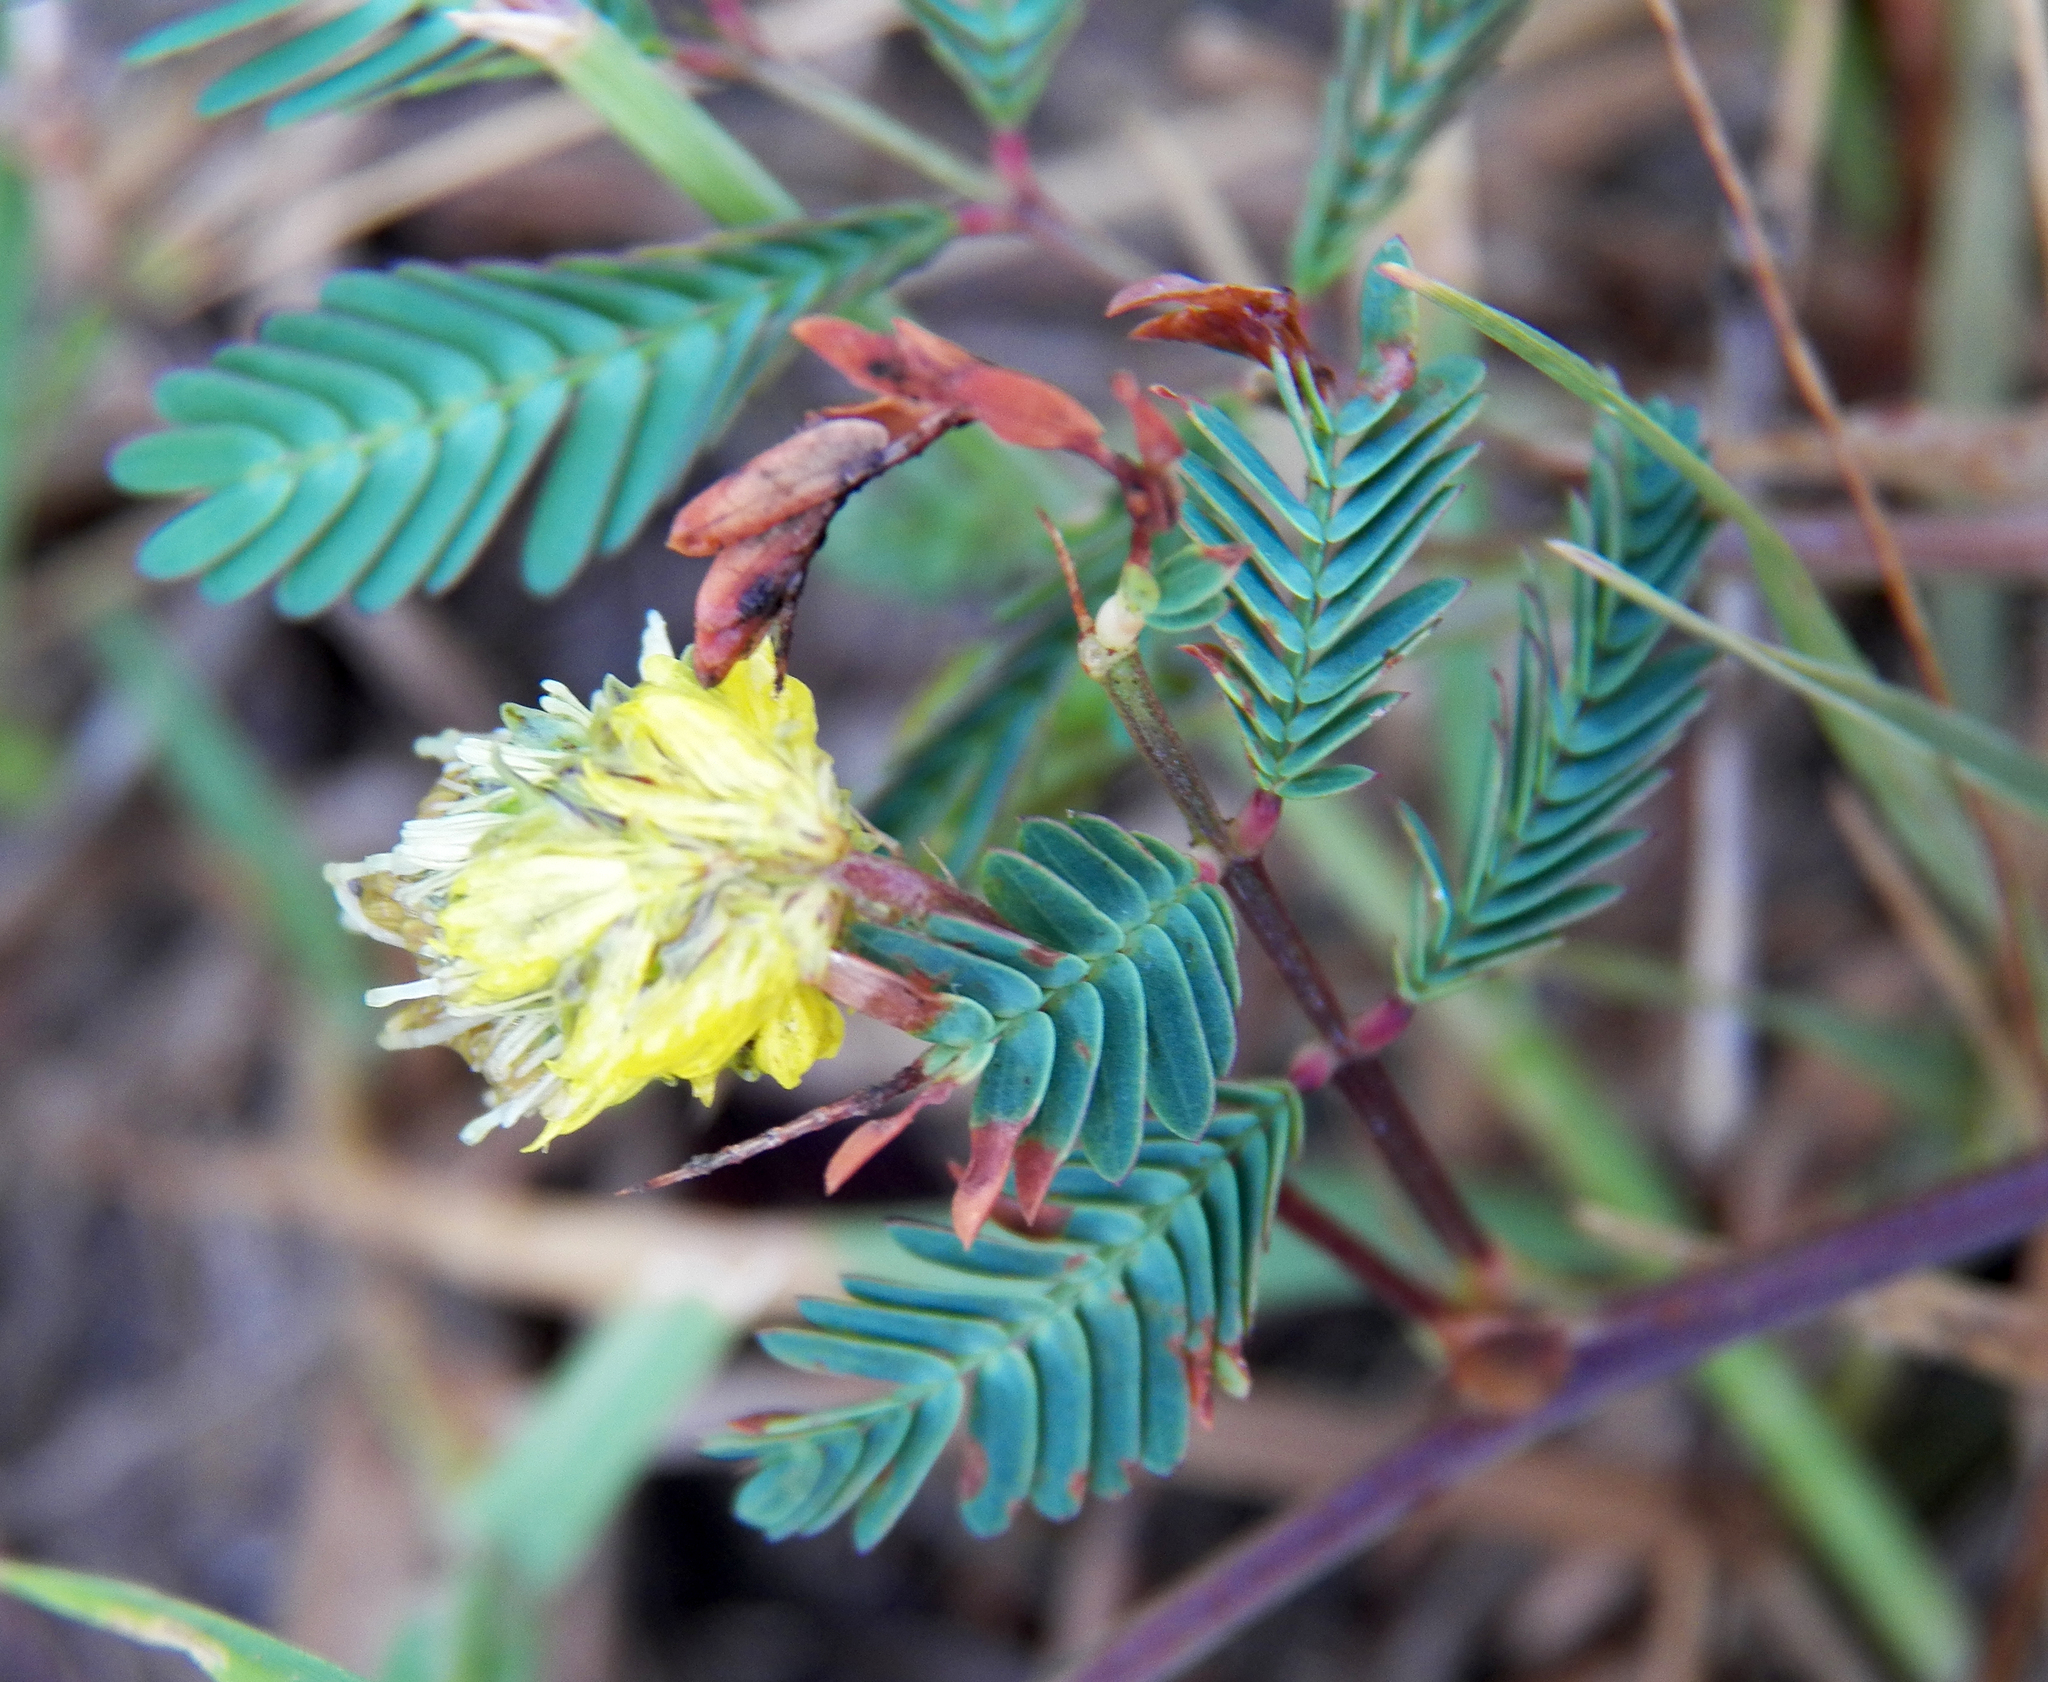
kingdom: Plantae
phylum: Tracheophyta
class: Magnoliopsida
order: Fabales
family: Fabaceae
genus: Neptunia
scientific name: Neptunia pubescens
